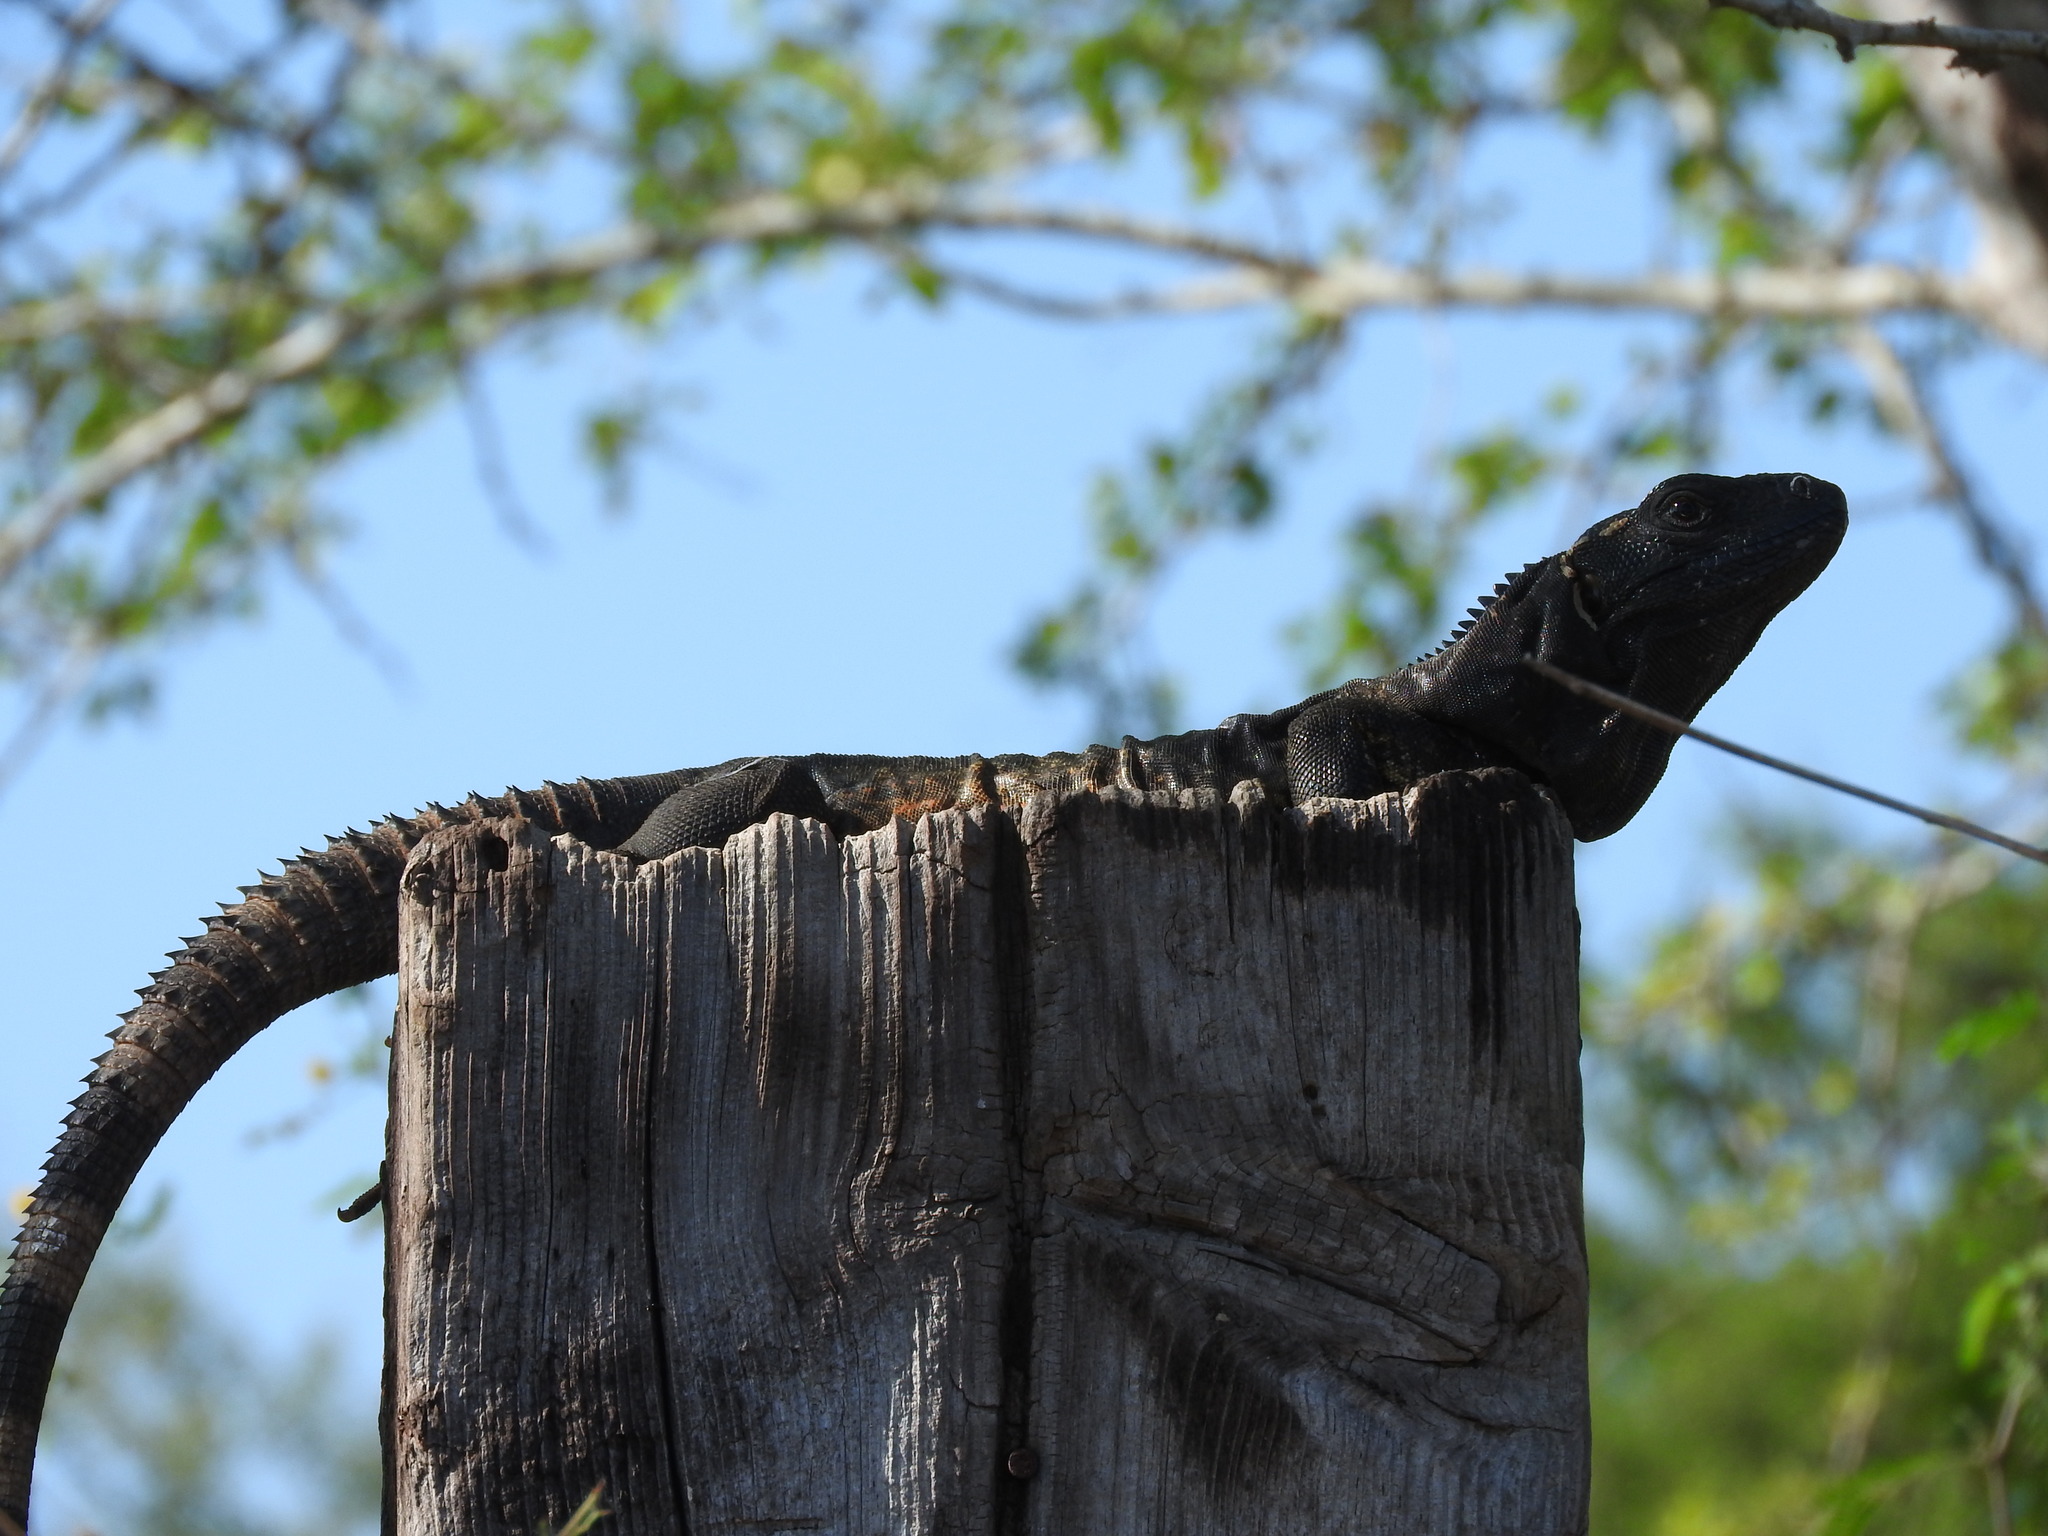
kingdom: Animalia
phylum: Chordata
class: Squamata
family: Iguanidae
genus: Ctenosaura
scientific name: Ctenosaura pectinata
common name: Guerreran spiny-tailed iguana
